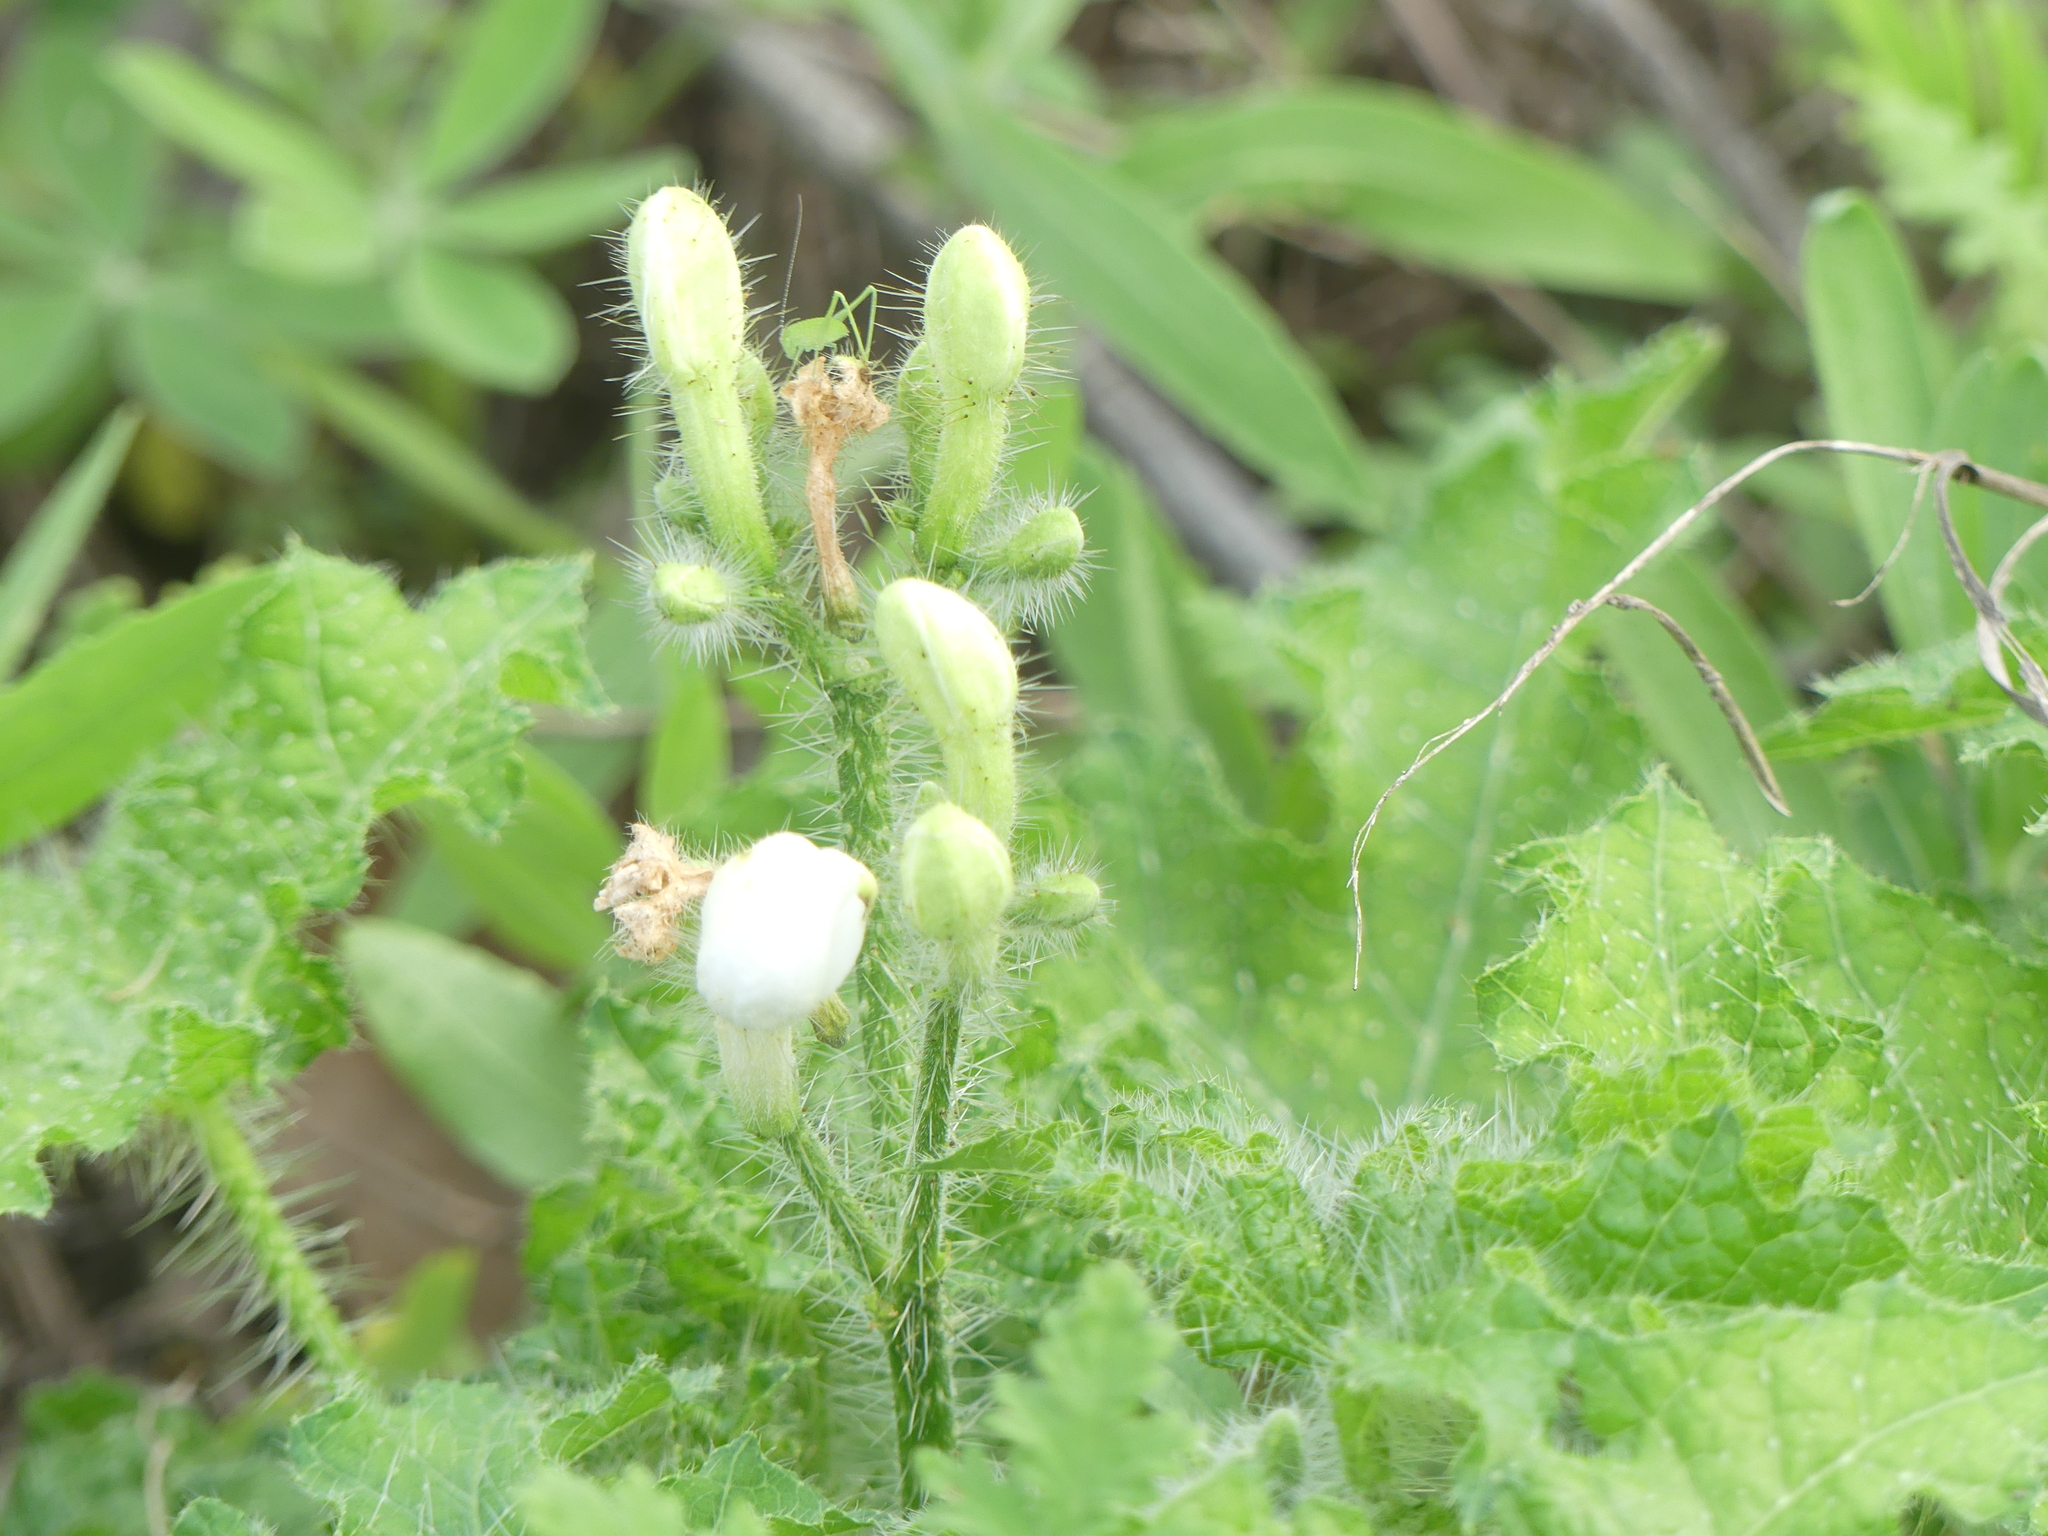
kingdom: Plantae
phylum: Tracheophyta
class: Magnoliopsida
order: Malpighiales
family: Euphorbiaceae
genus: Cnidoscolus
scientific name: Cnidoscolus texanus
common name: Texas bull-nettle
